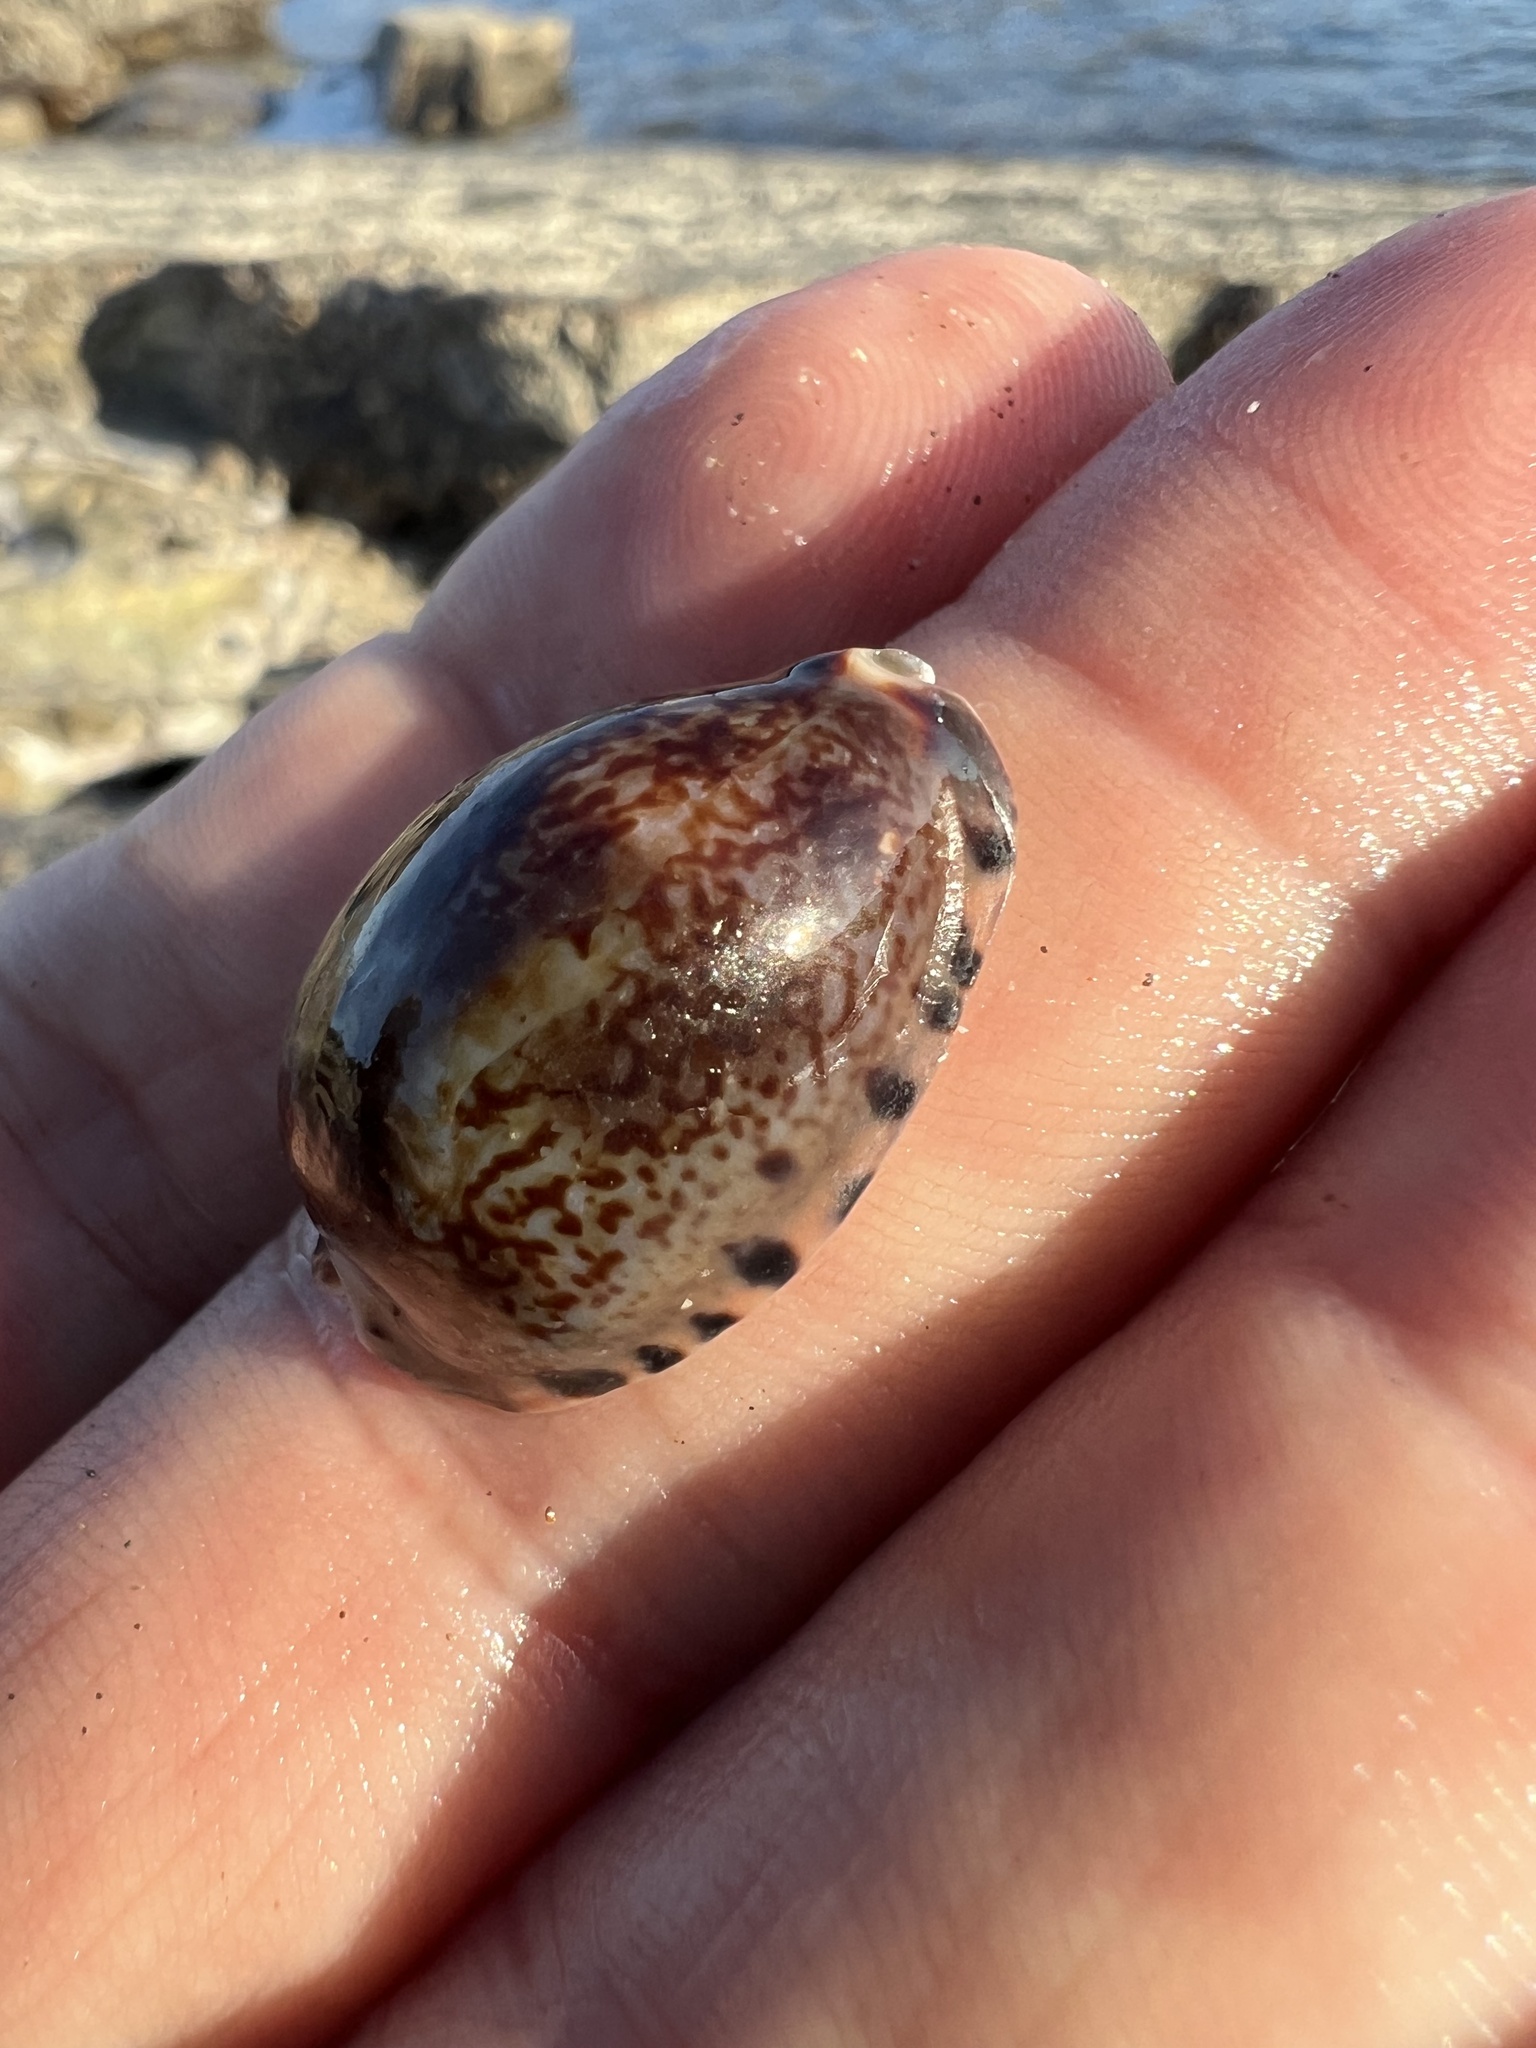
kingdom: Animalia
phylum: Mollusca
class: Gastropoda
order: Littorinimorpha
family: Cypraeidae
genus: Pseudozonaria
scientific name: Pseudozonaria arabicula
